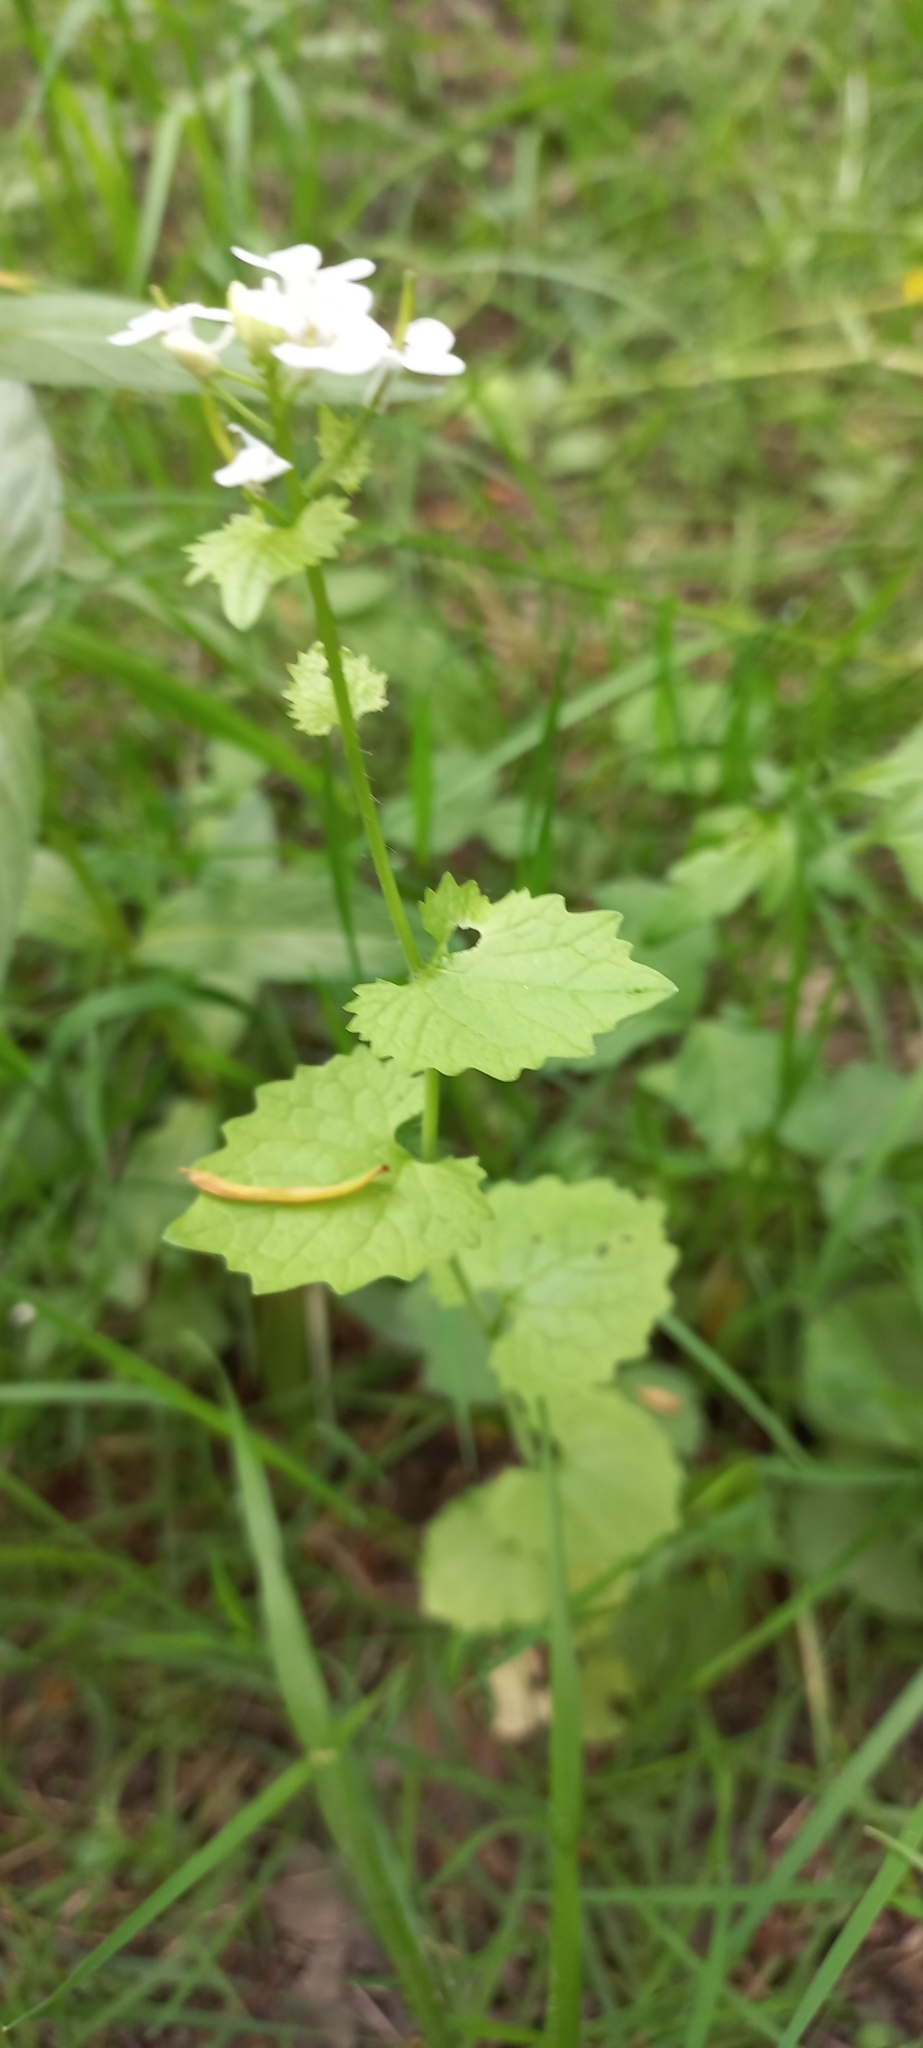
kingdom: Plantae
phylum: Tracheophyta
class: Magnoliopsida
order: Brassicales
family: Brassicaceae
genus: Alliaria
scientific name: Alliaria petiolata
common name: Garlic mustard
